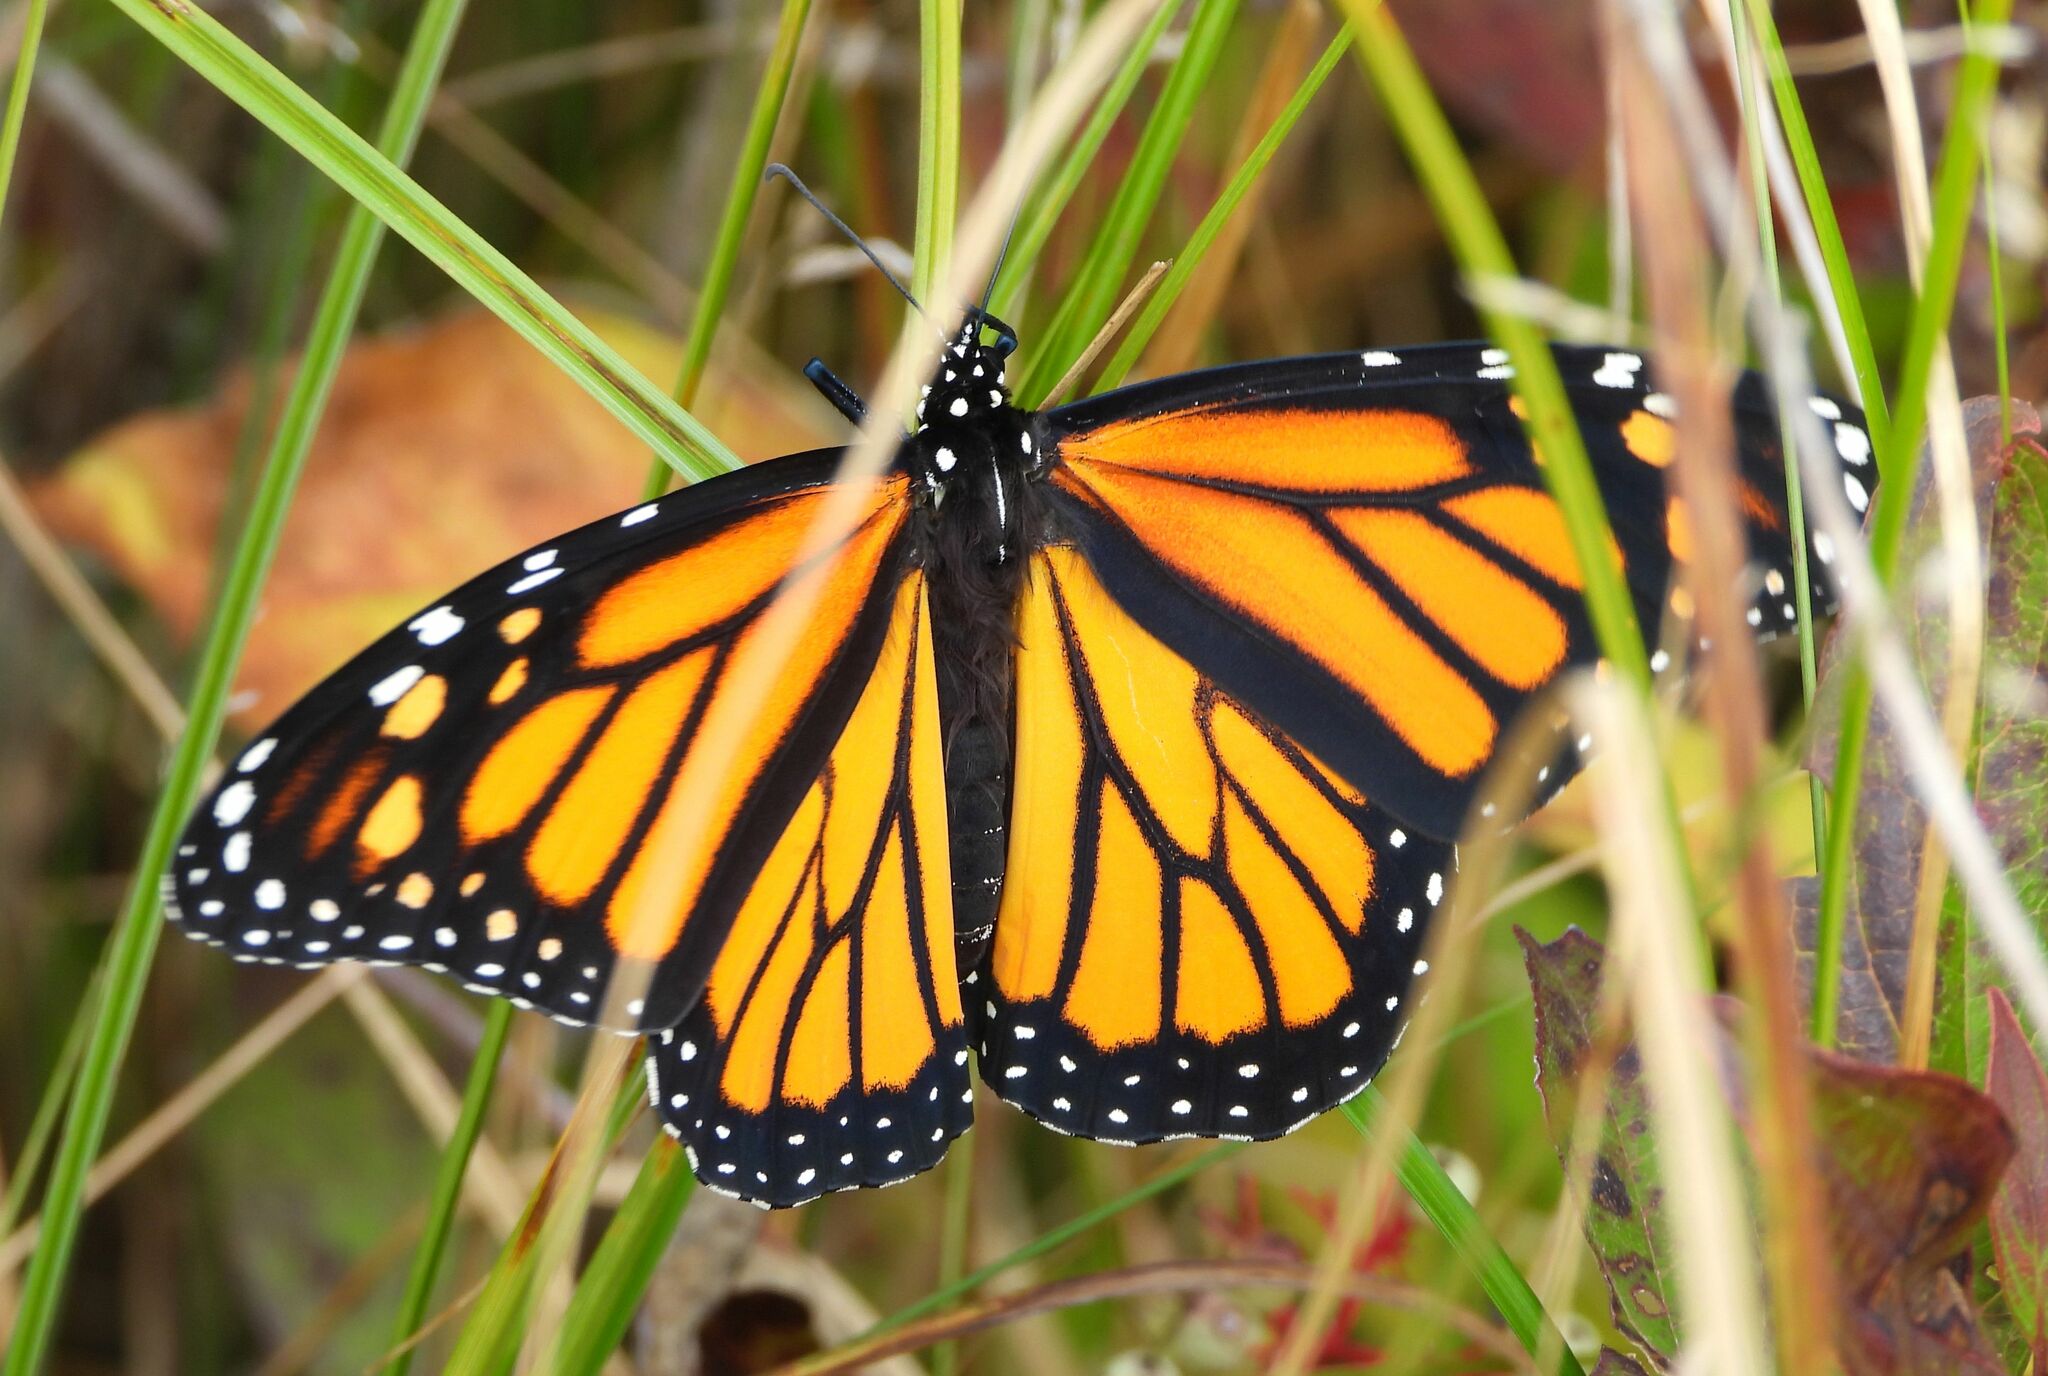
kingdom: Animalia
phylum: Arthropoda
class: Insecta
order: Lepidoptera
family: Nymphalidae
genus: Danaus
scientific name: Danaus plexippus
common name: Monarch
